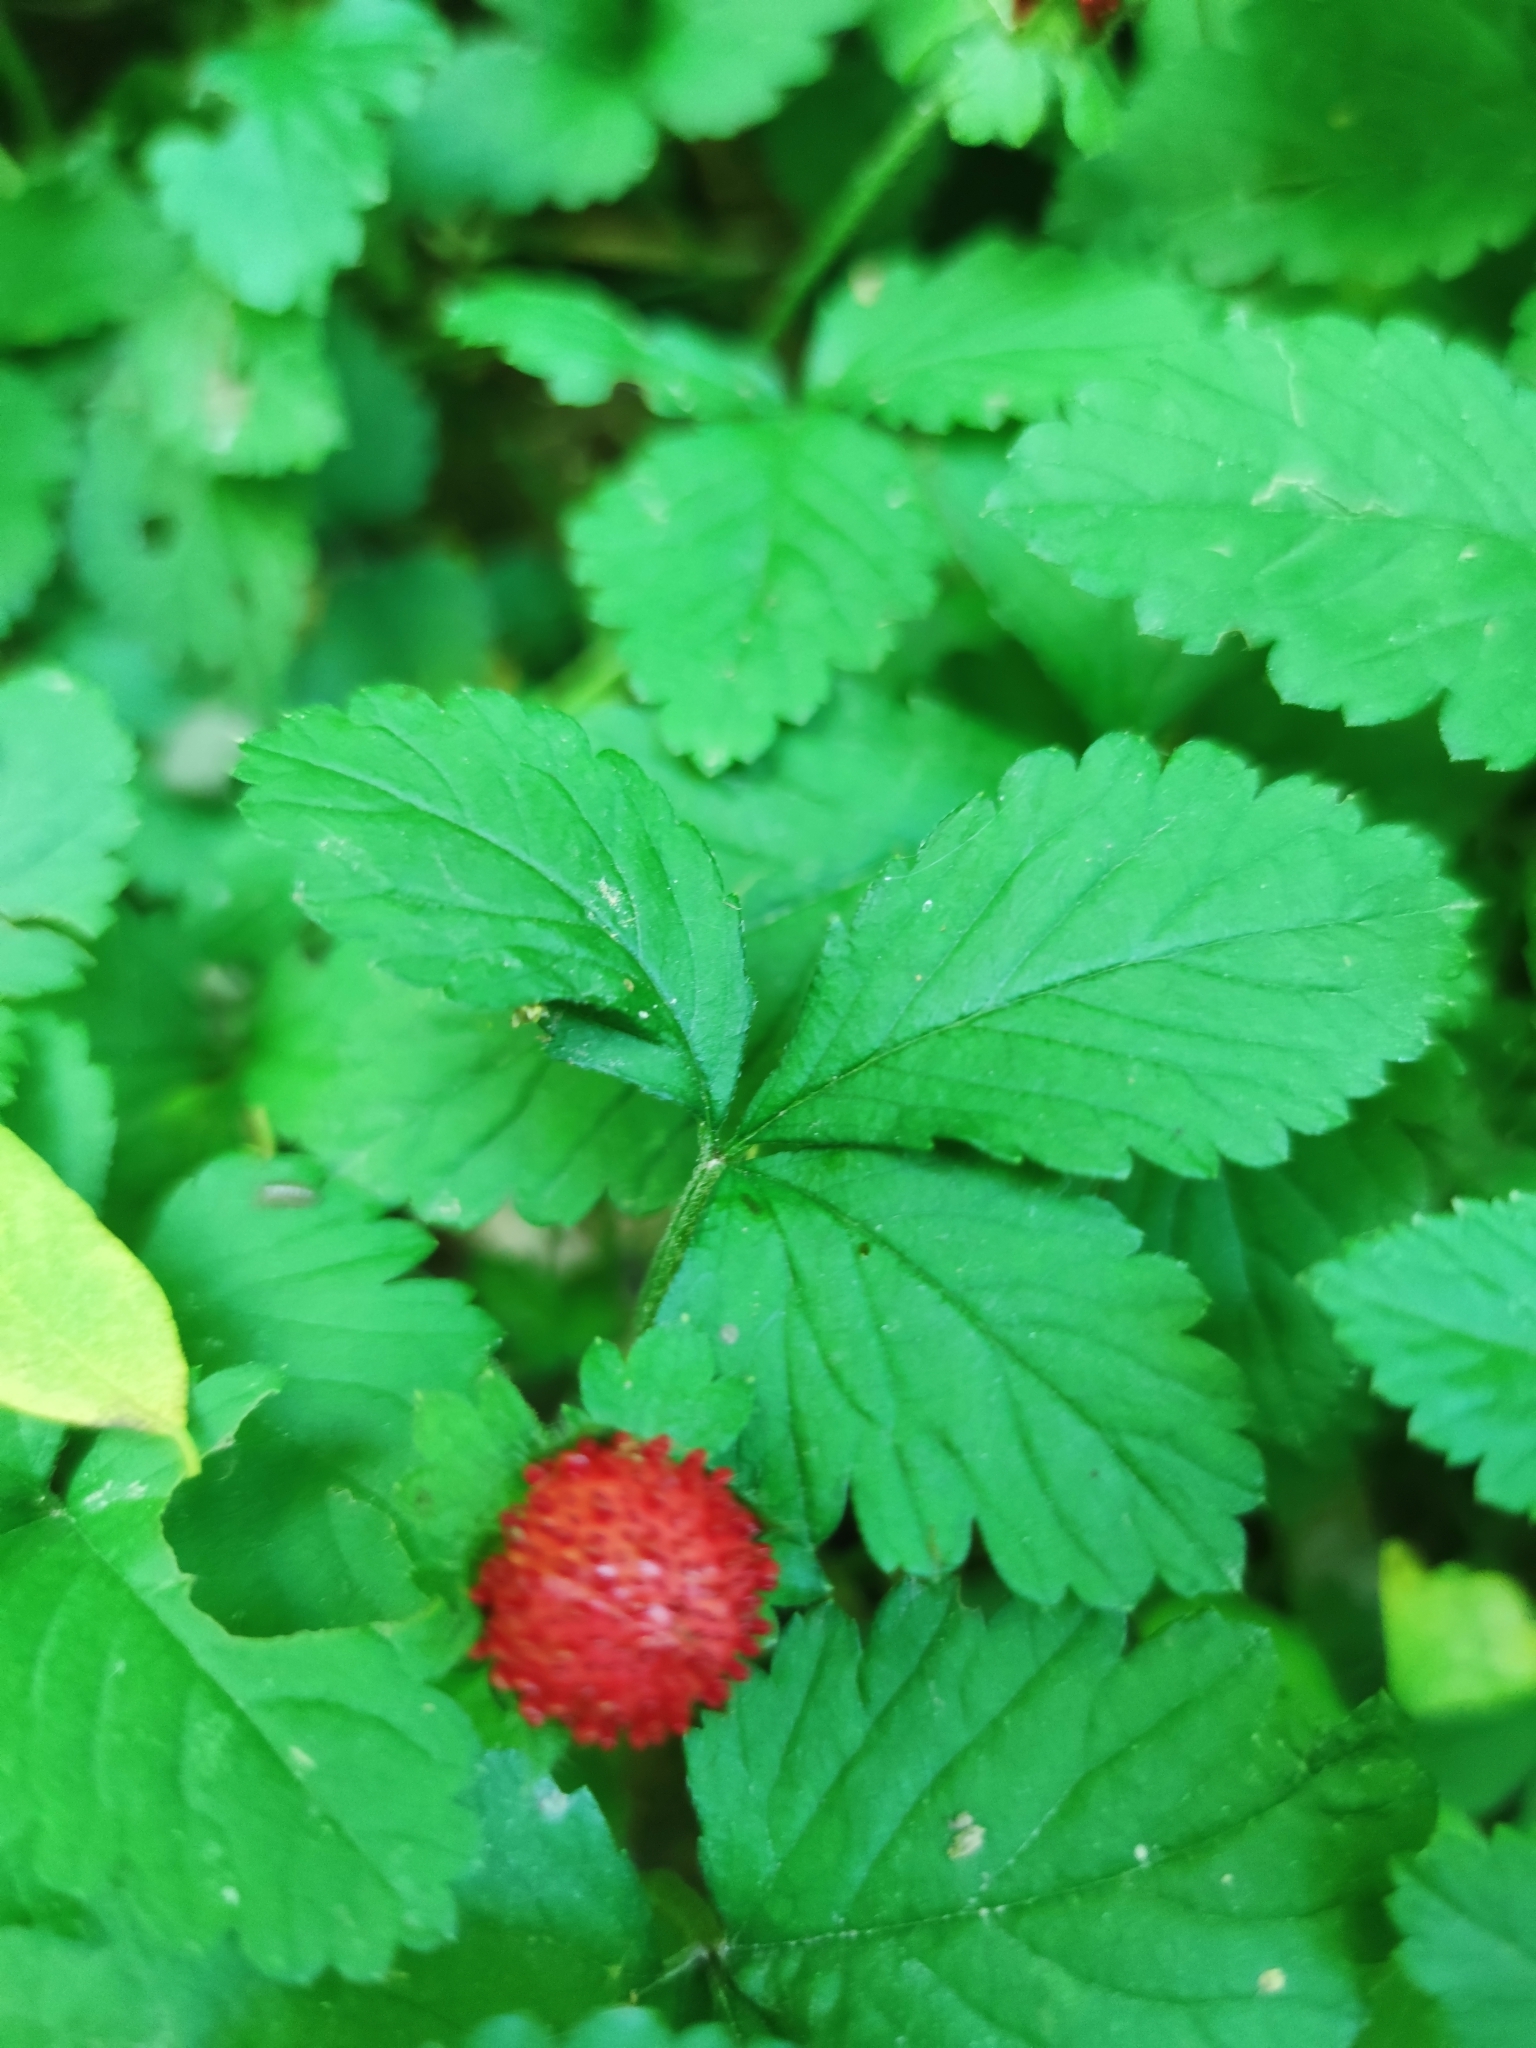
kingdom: Plantae
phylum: Tracheophyta
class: Magnoliopsida
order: Rosales
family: Rosaceae
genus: Potentilla
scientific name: Potentilla indica
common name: Yellow-flowered strawberry
